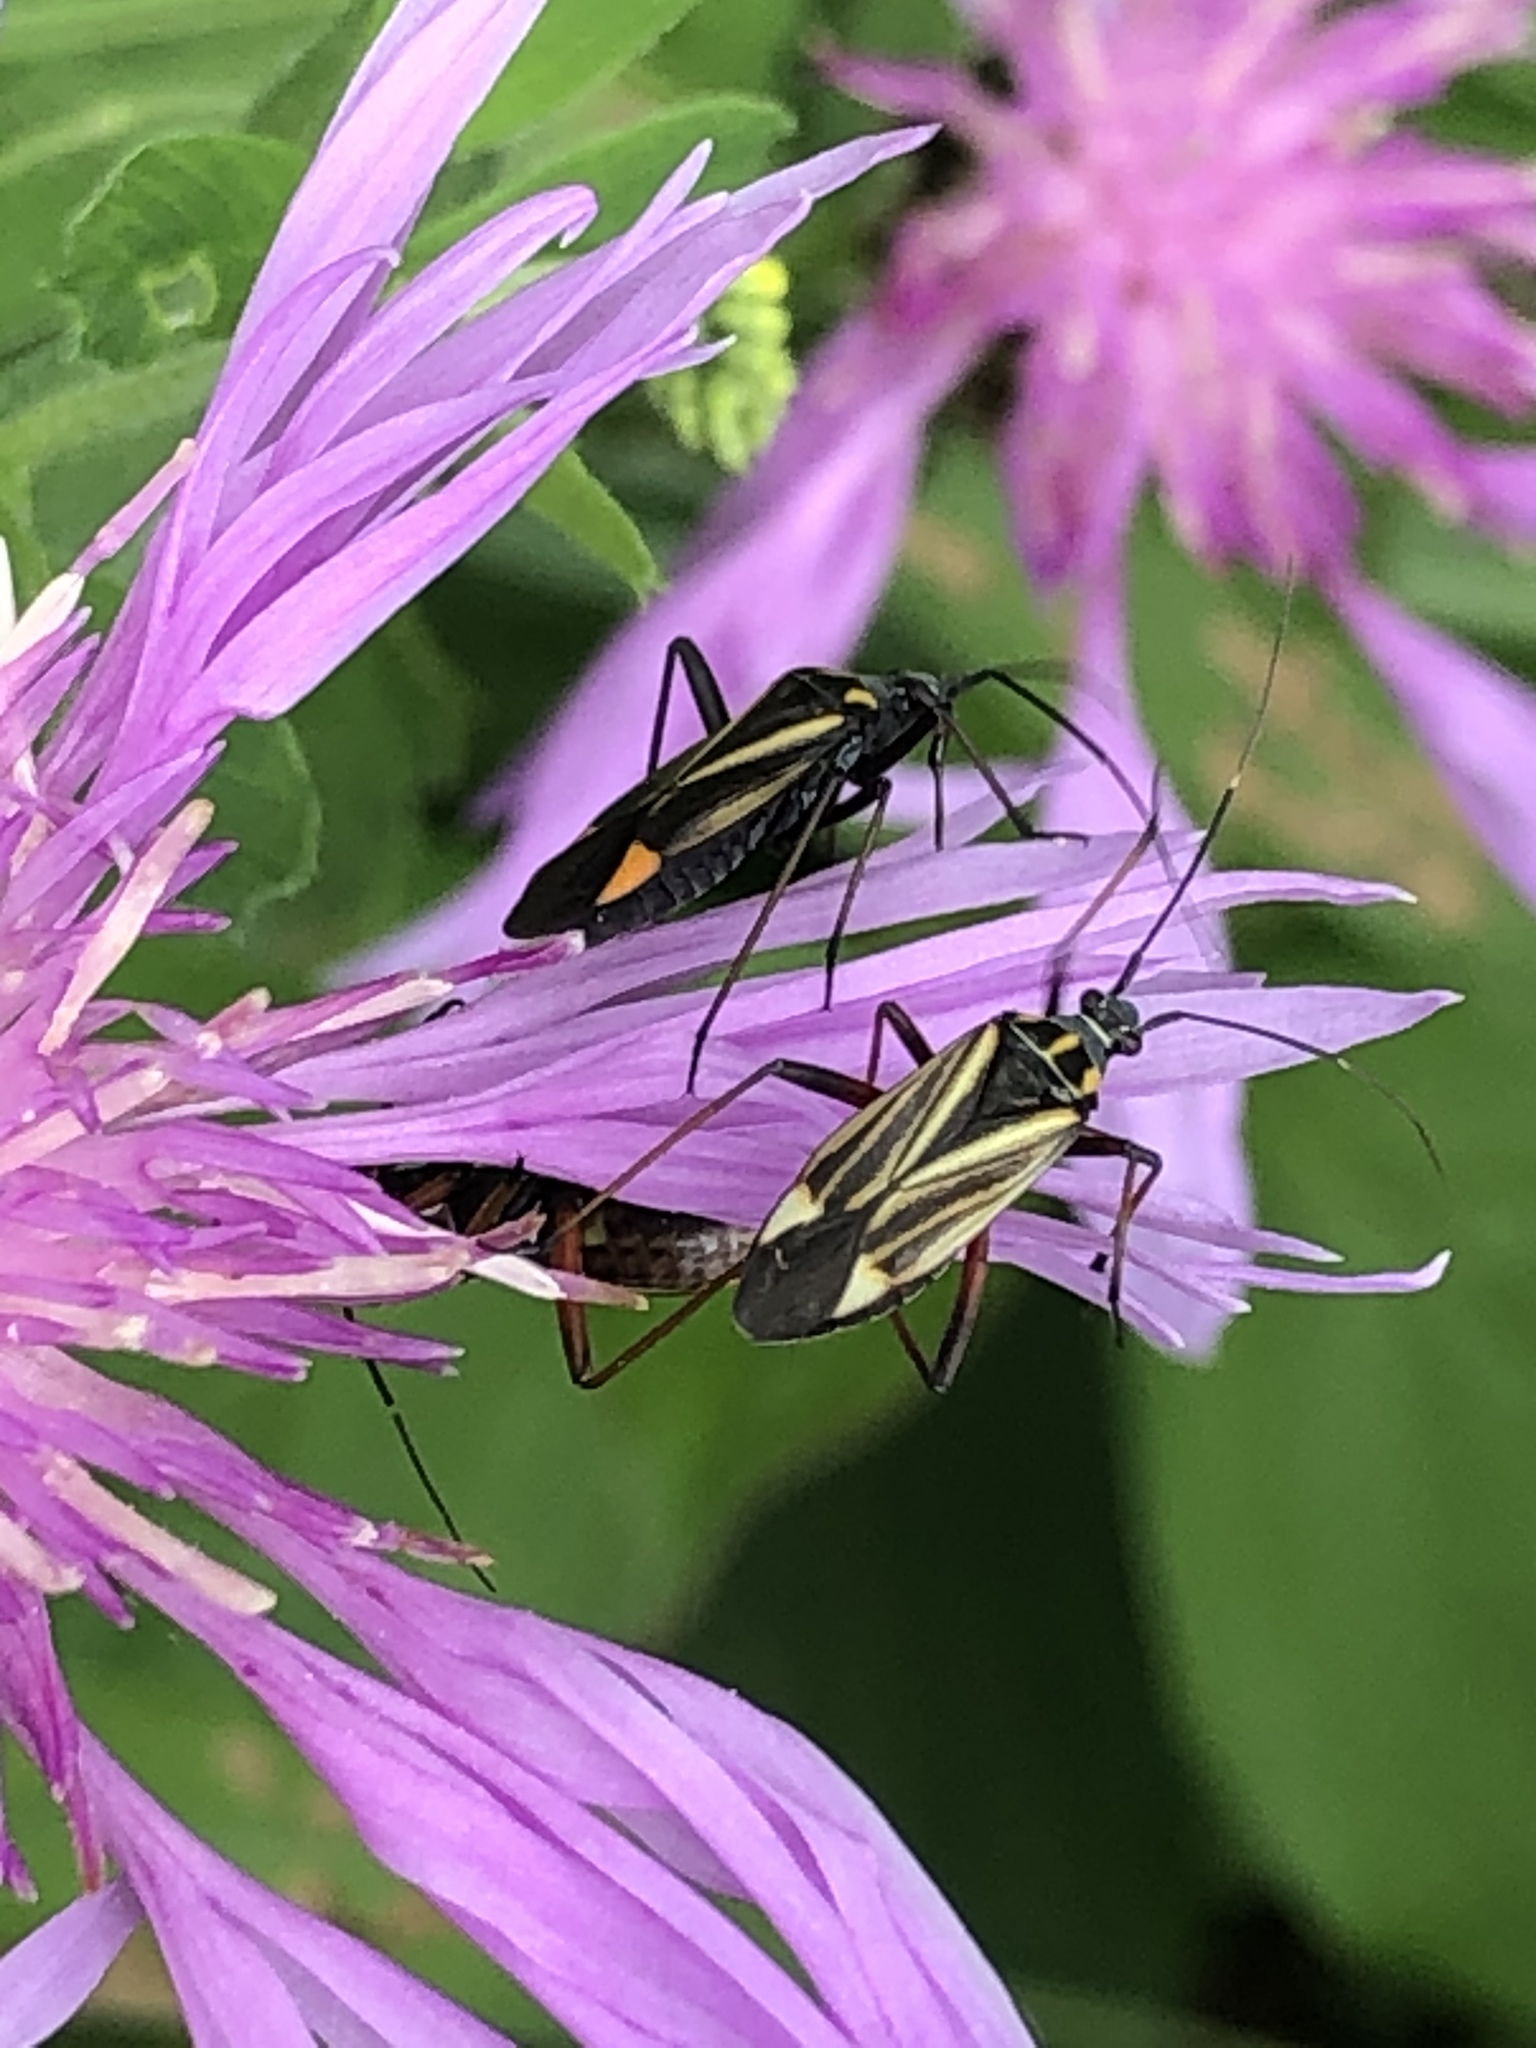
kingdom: Animalia
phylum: Arthropoda
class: Insecta
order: Hemiptera
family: Miridae
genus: Hadrodemus
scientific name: Hadrodemus m-flavum
